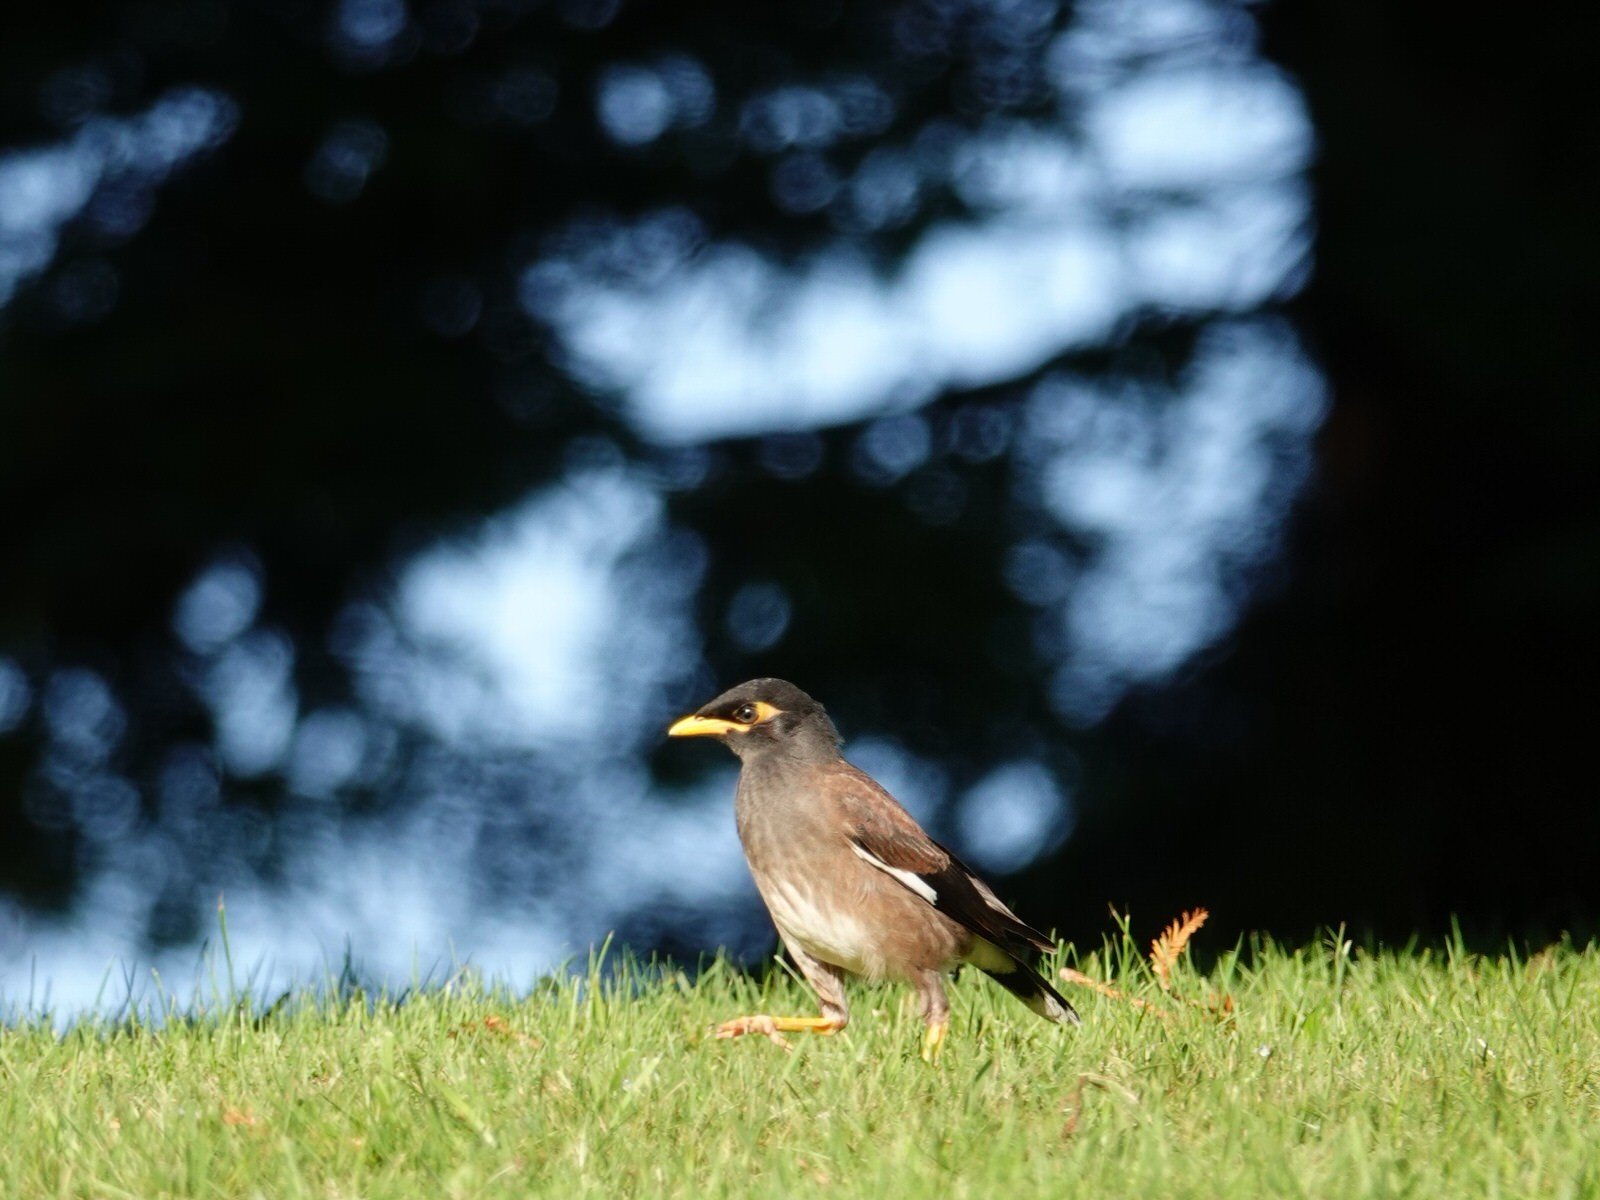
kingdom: Animalia
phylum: Chordata
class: Aves
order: Passeriformes
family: Sturnidae
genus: Acridotheres
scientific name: Acridotheres tristis
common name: Common myna
